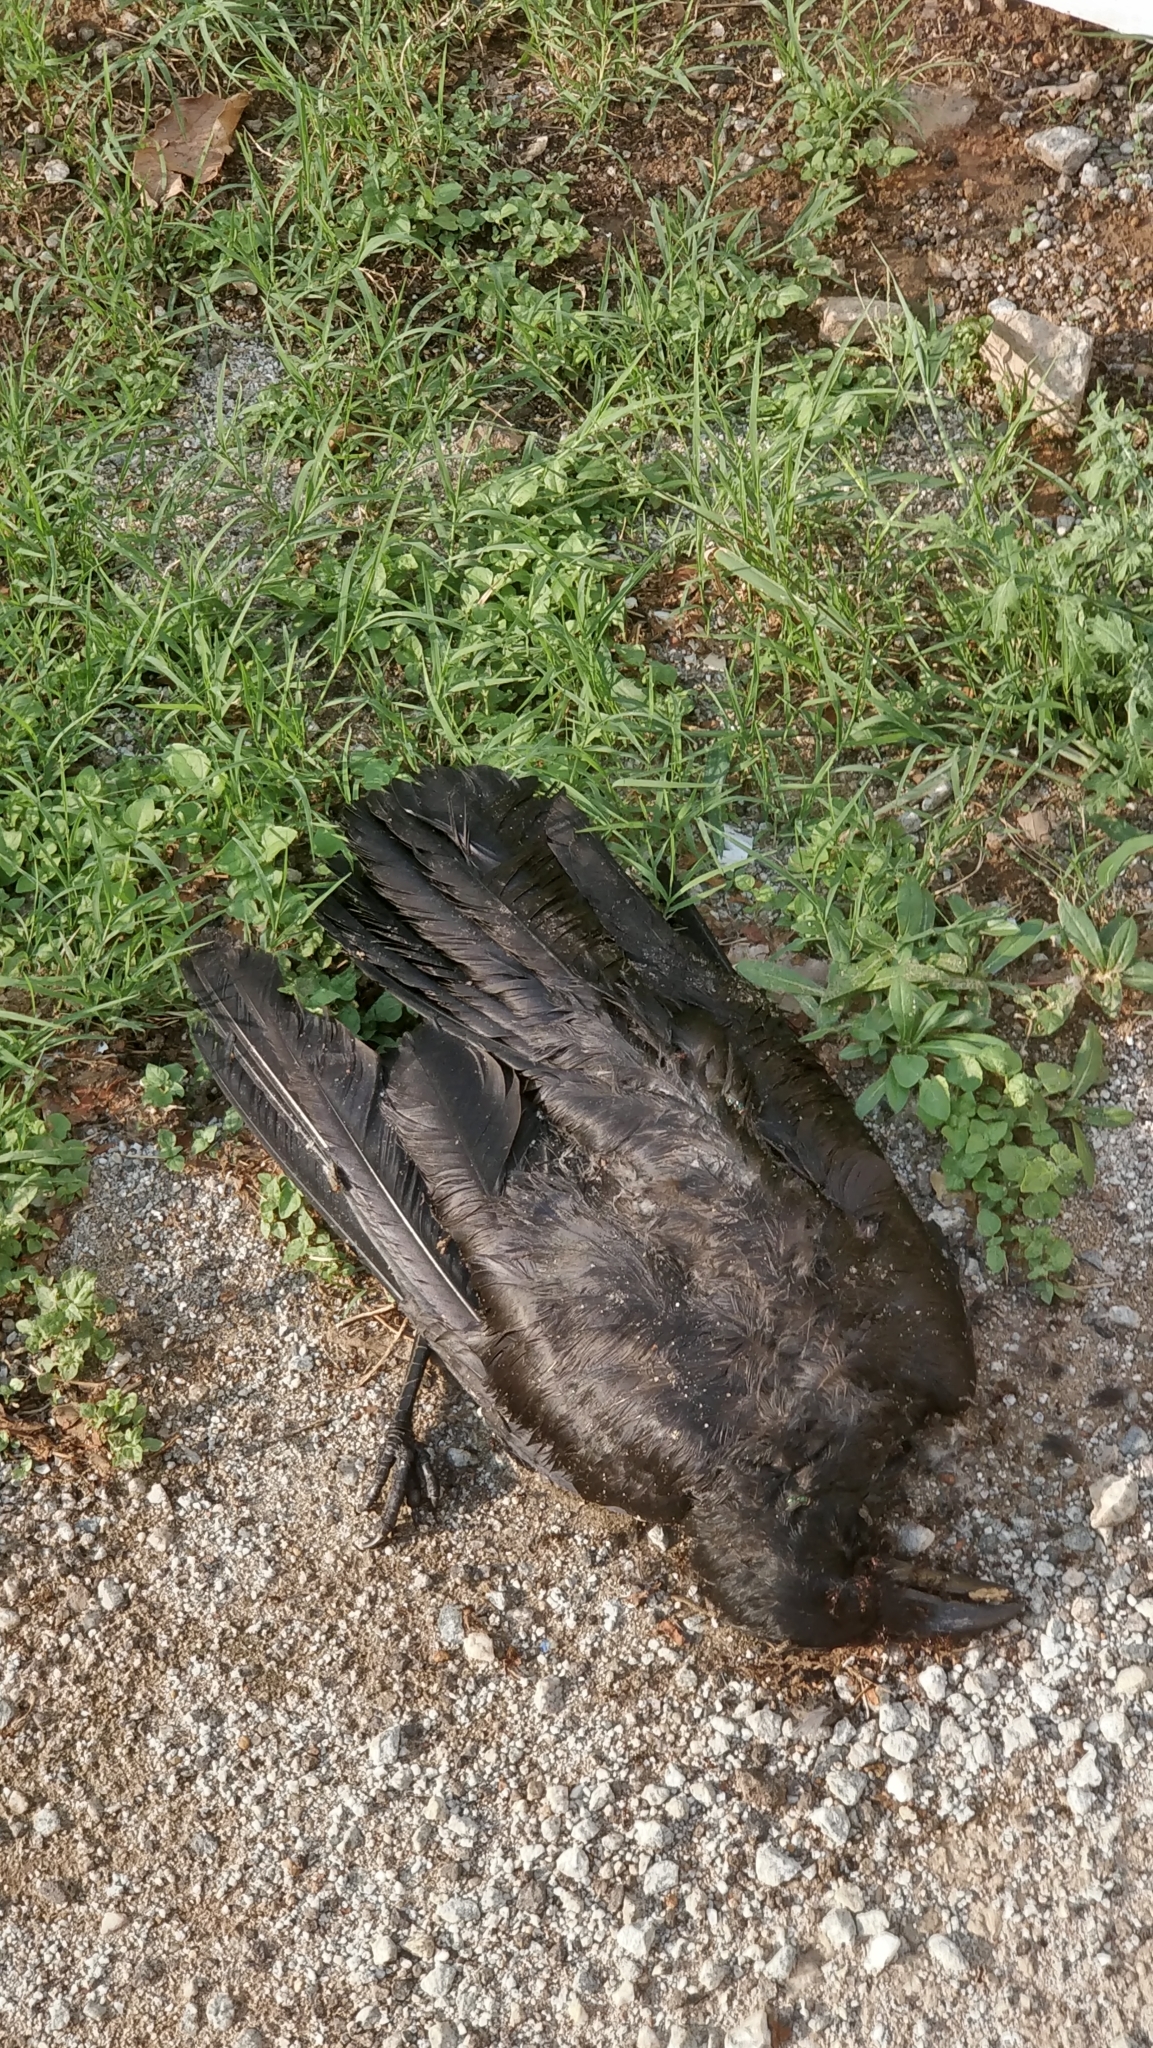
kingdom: Animalia
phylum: Chordata
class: Aves
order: Passeriformes
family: Corvidae
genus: Corvus
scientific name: Corvus macrorhynchos
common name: Large-billed crow
